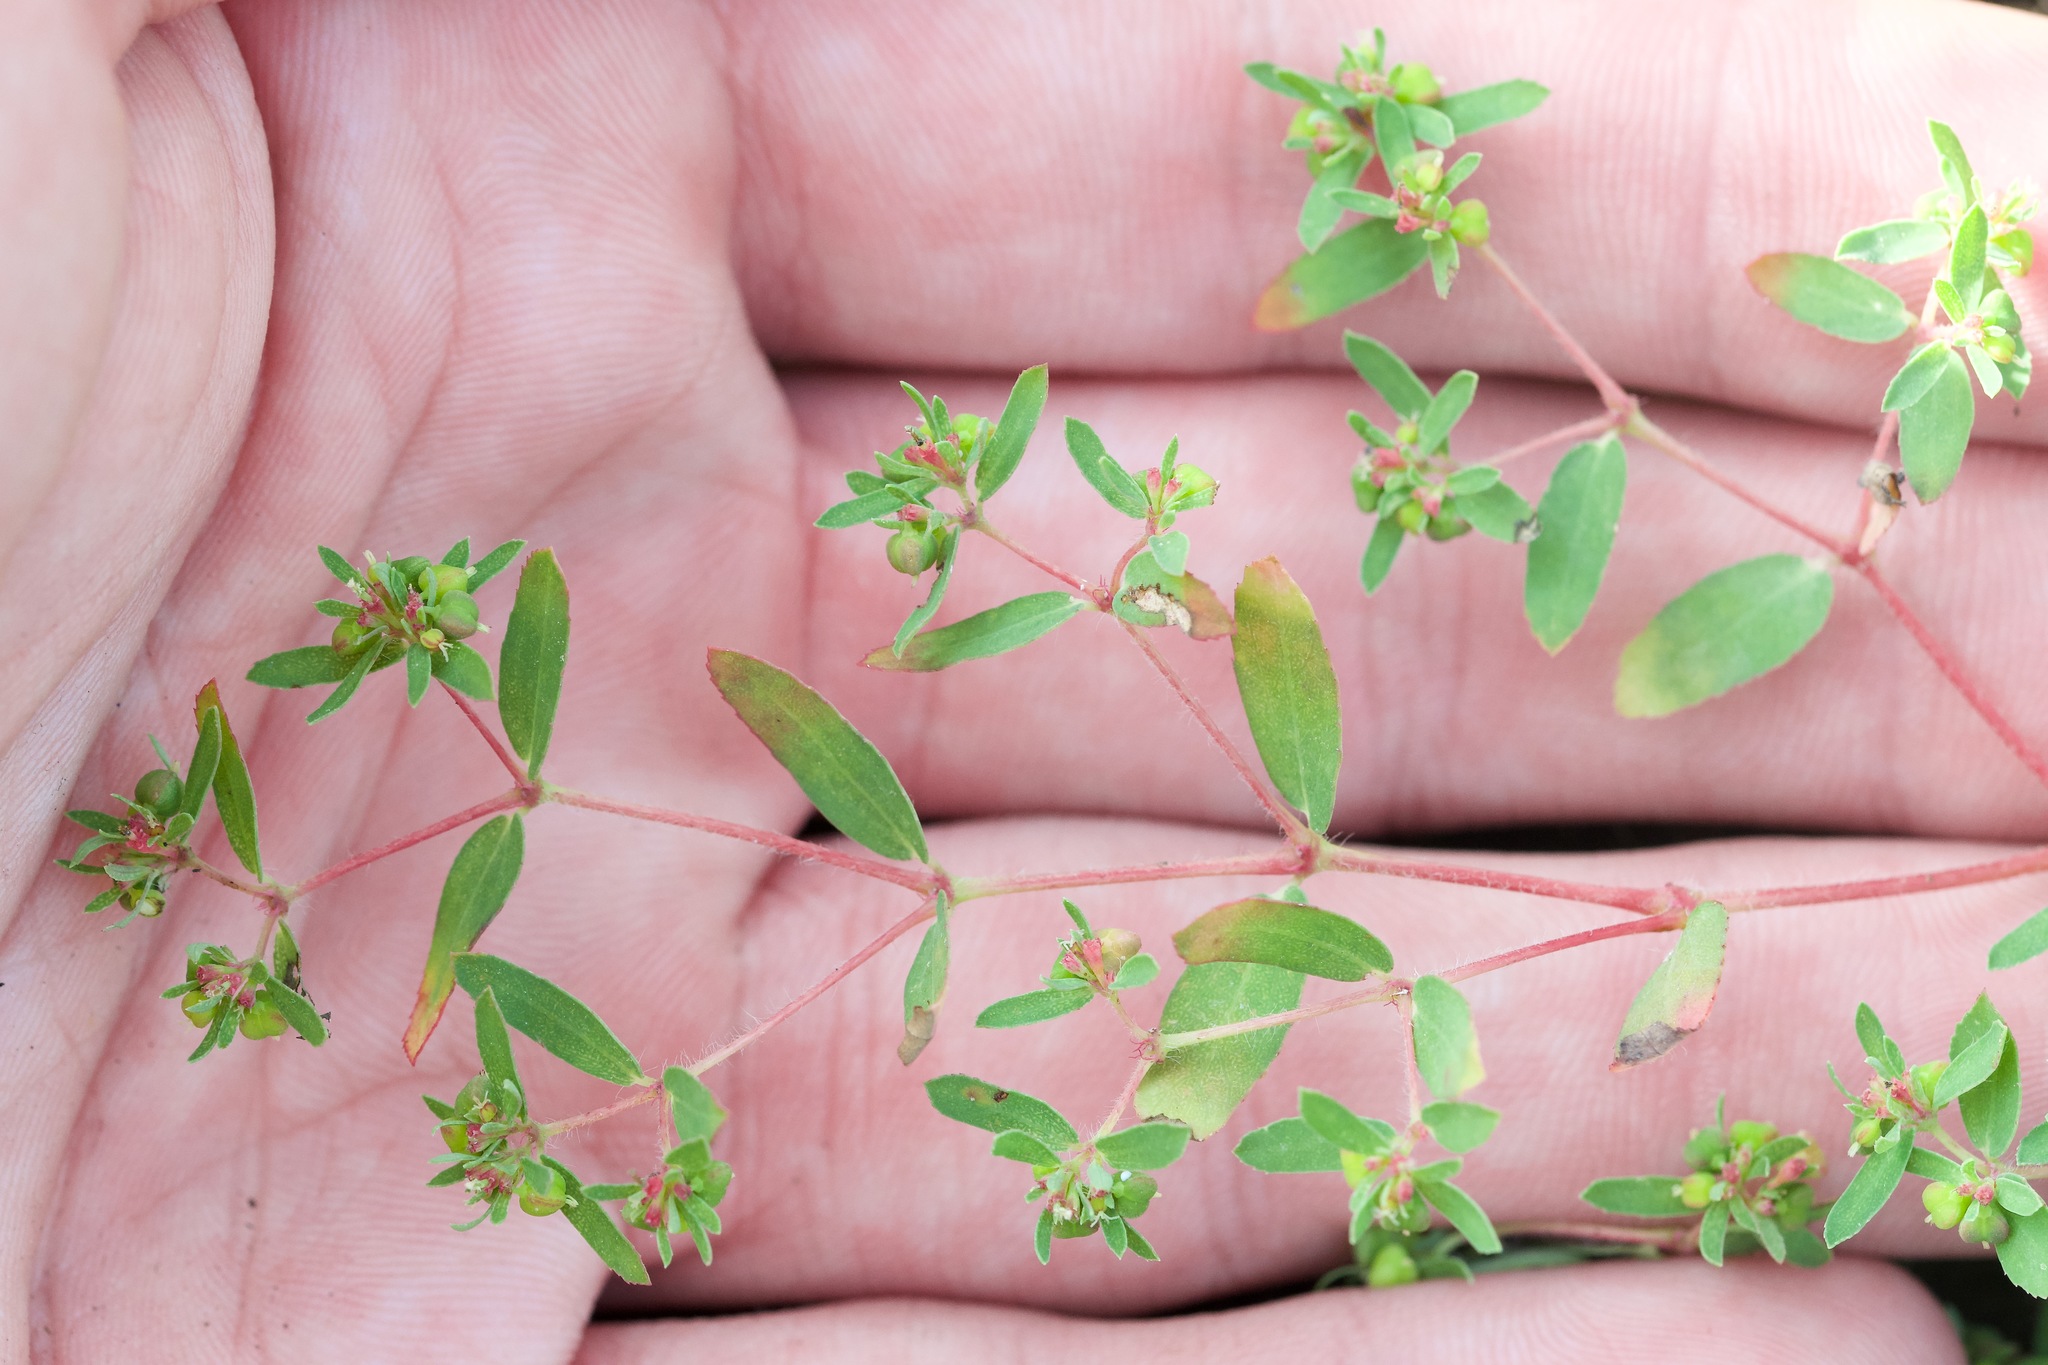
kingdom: Plantae
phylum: Tracheophyta
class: Magnoliopsida
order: Malpighiales
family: Euphorbiaceae
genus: Euphorbia
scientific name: Euphorbia vermiculata
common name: Hairy spurge
